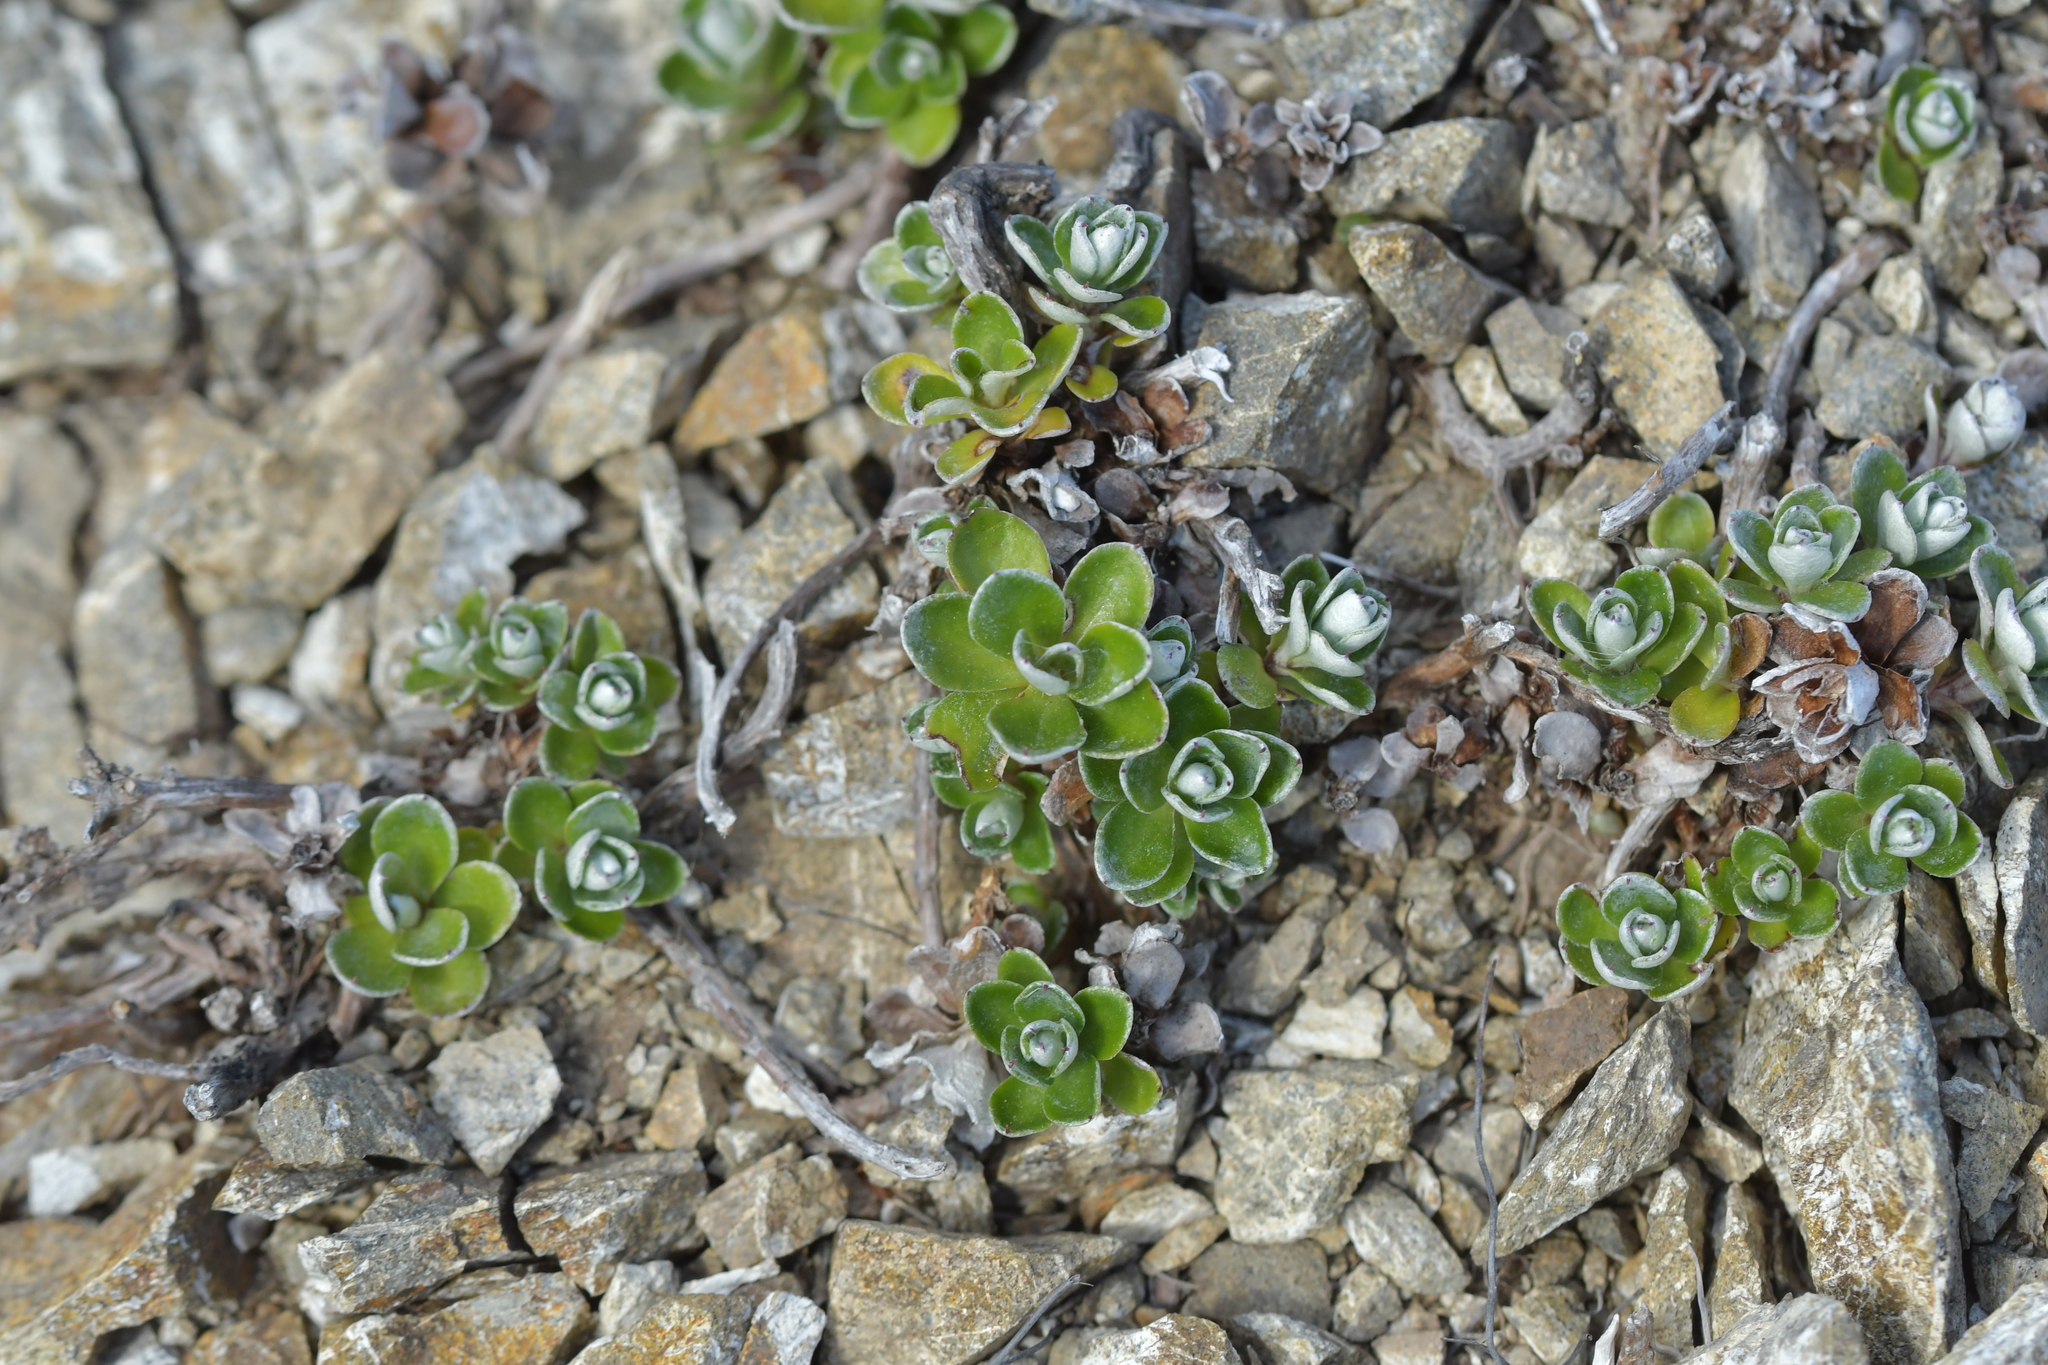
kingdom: Plantae
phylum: Tracheophyta
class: Magnoliopsida
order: Asterales
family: Asteraceae
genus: Anaphalioides
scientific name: Anaphalioides bellidioides
